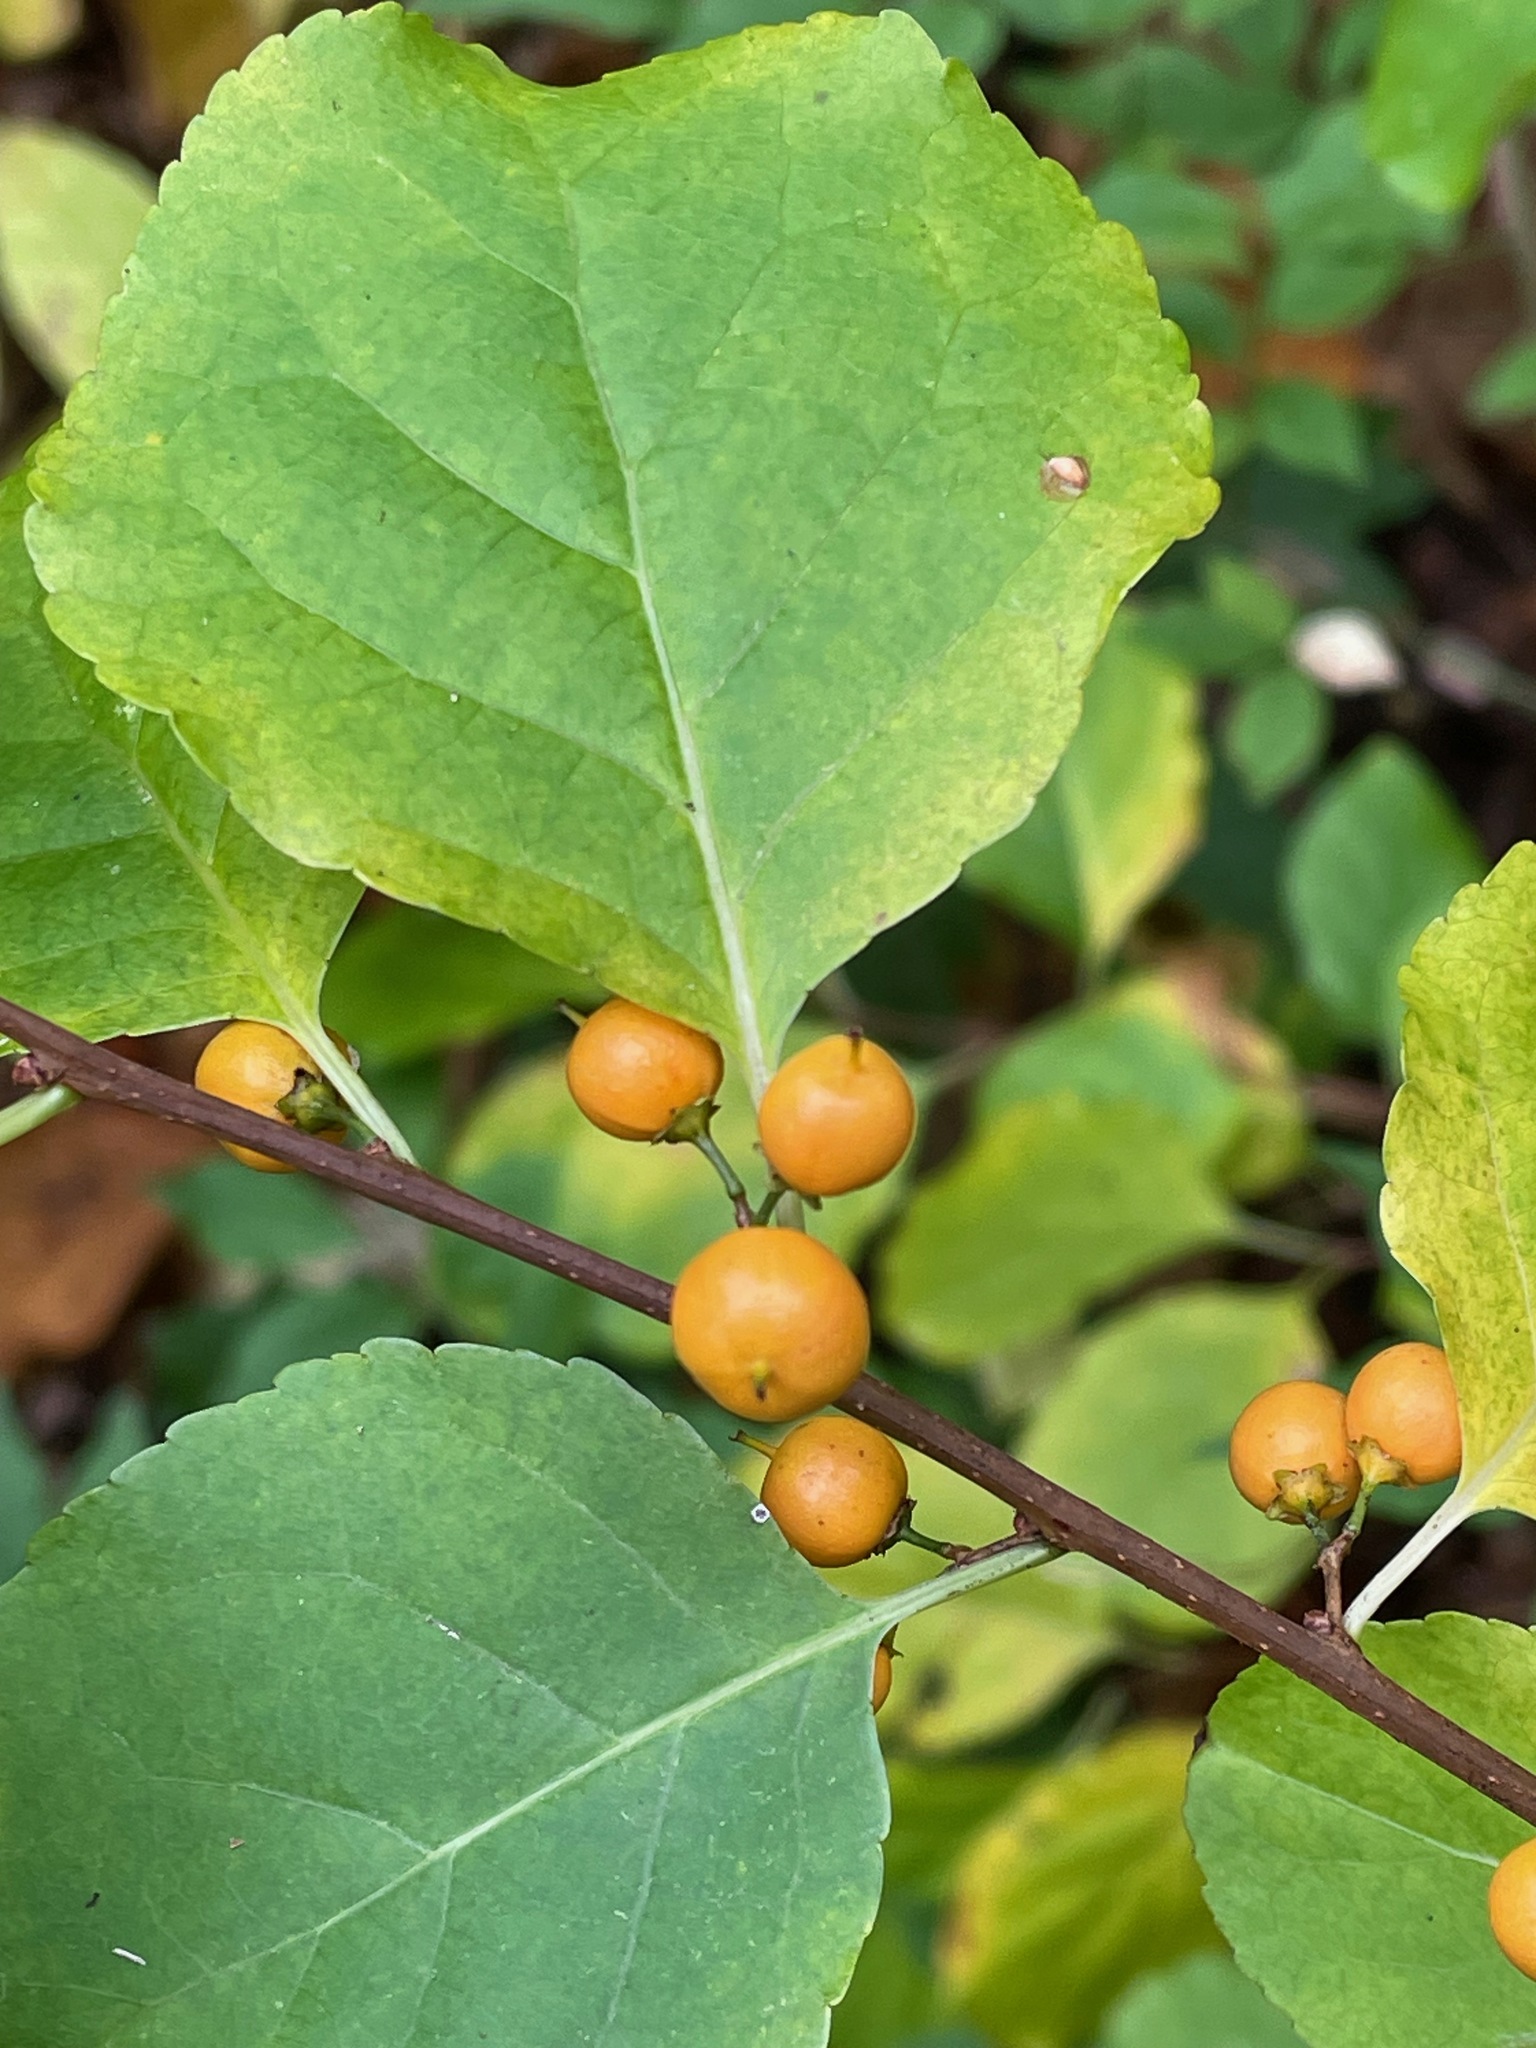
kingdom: Plantae
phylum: Tracheophyta
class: Magnoliopsida
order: Celastrales
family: Celastraceae
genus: Celastrus
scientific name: Celastrus orbiculatus
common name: Oriental bittersweet
